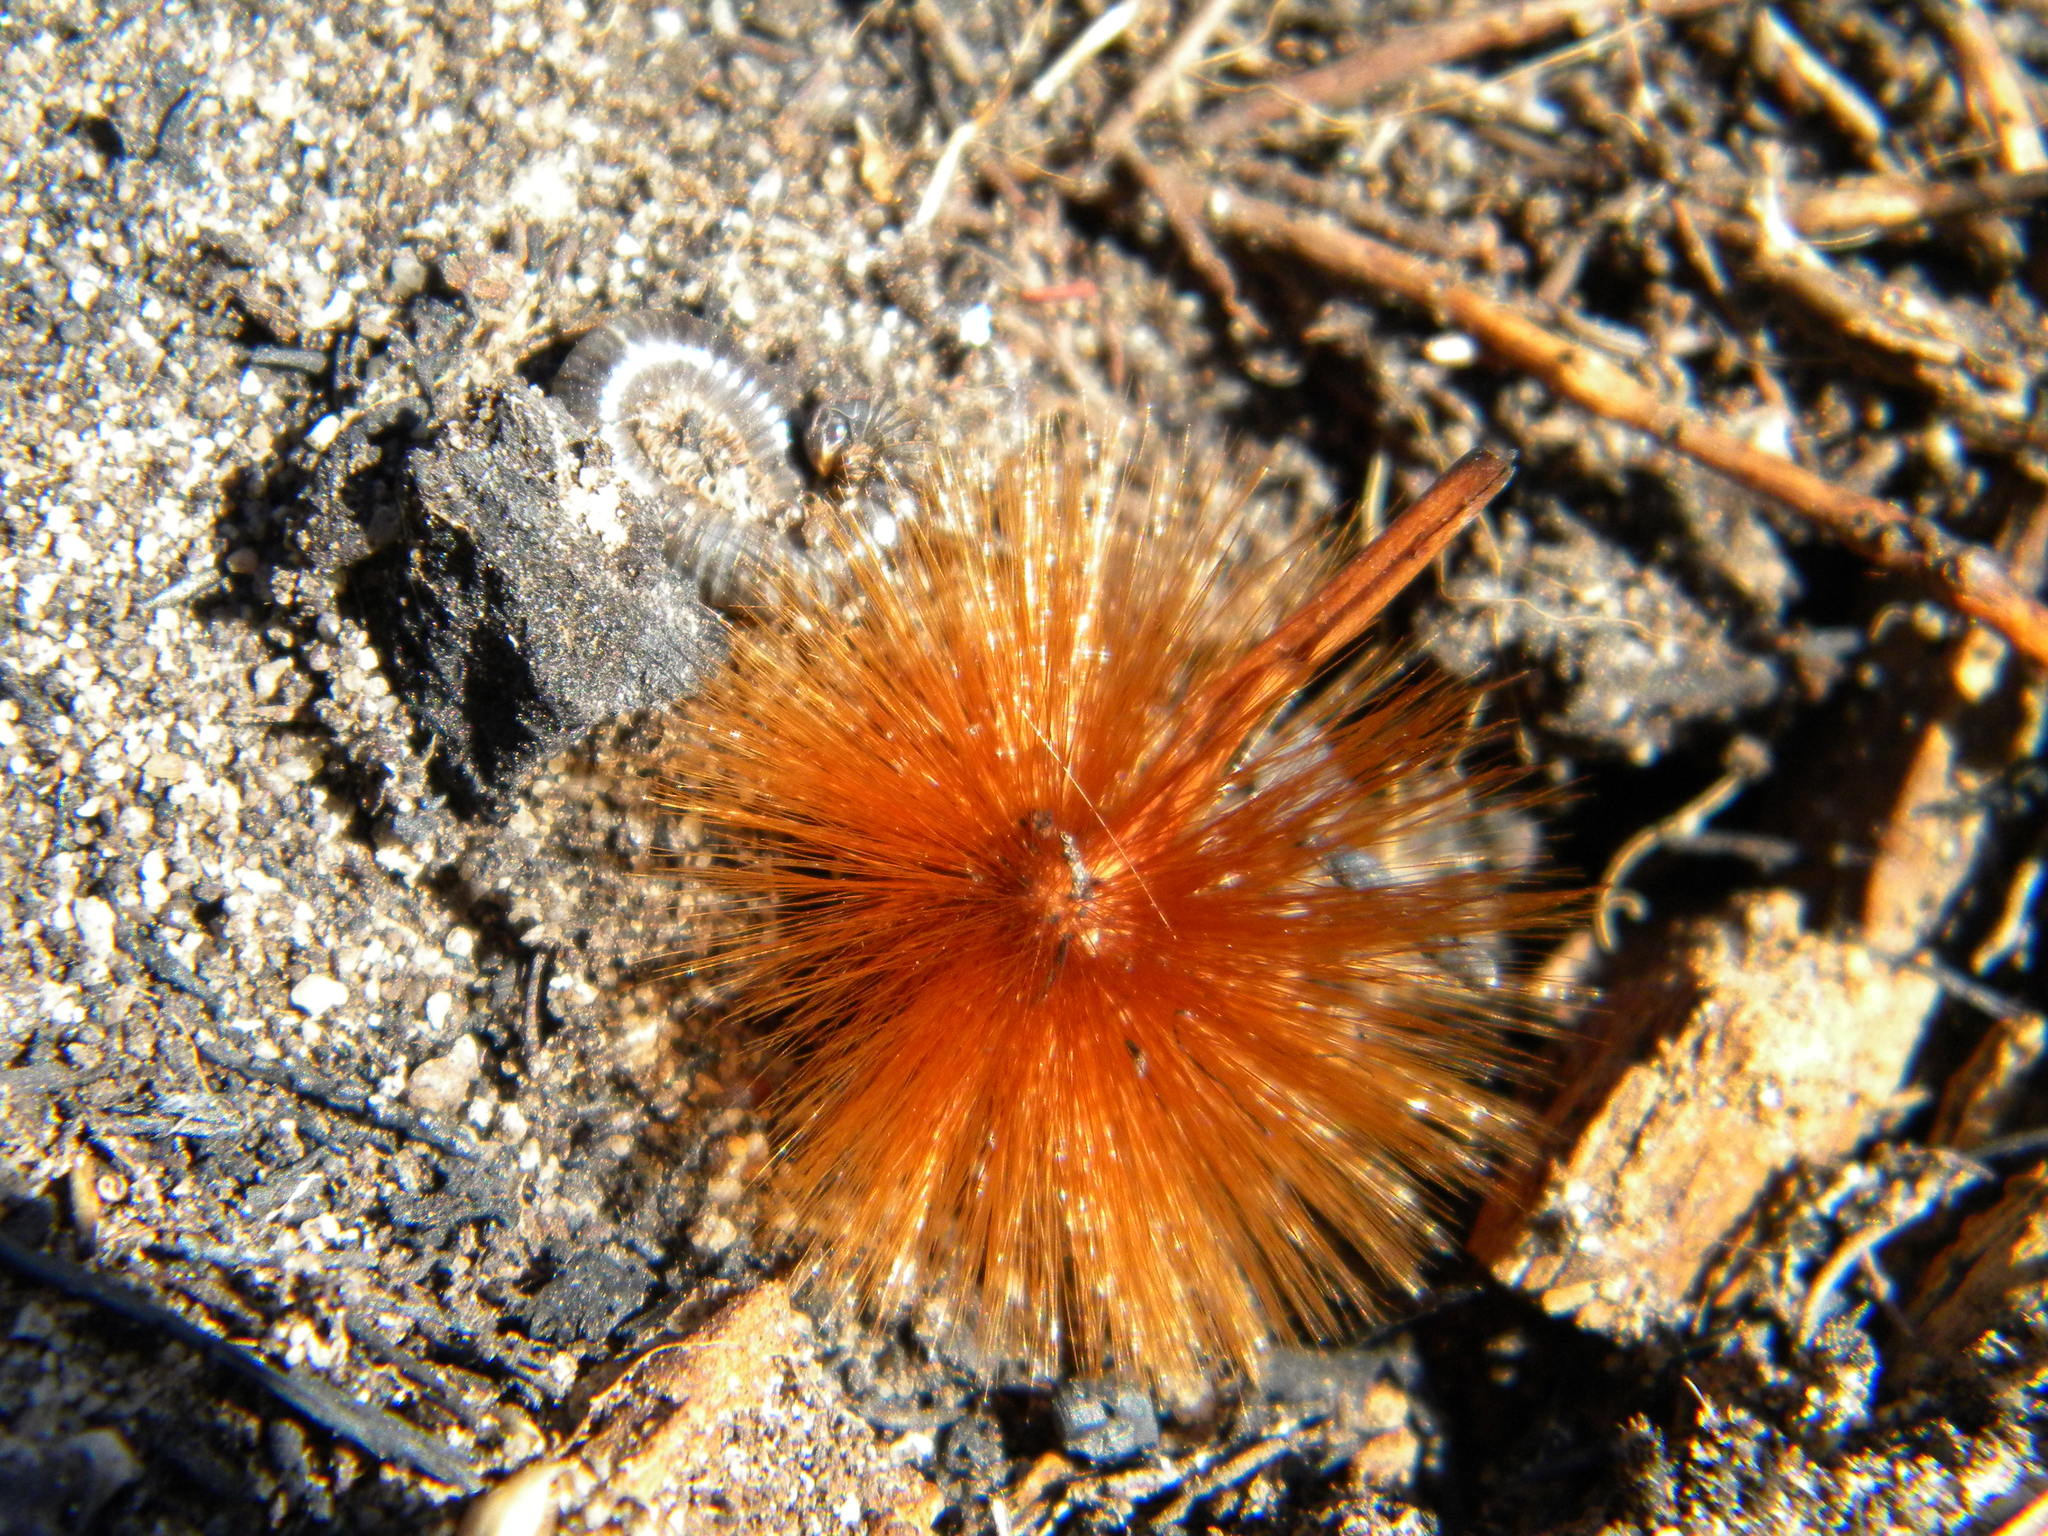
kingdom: Plantae
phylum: Tracheophyta
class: Magnoliopsida
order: Proteales
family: Proteaceae
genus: Protea
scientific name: Protea repens
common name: Sugarbush
